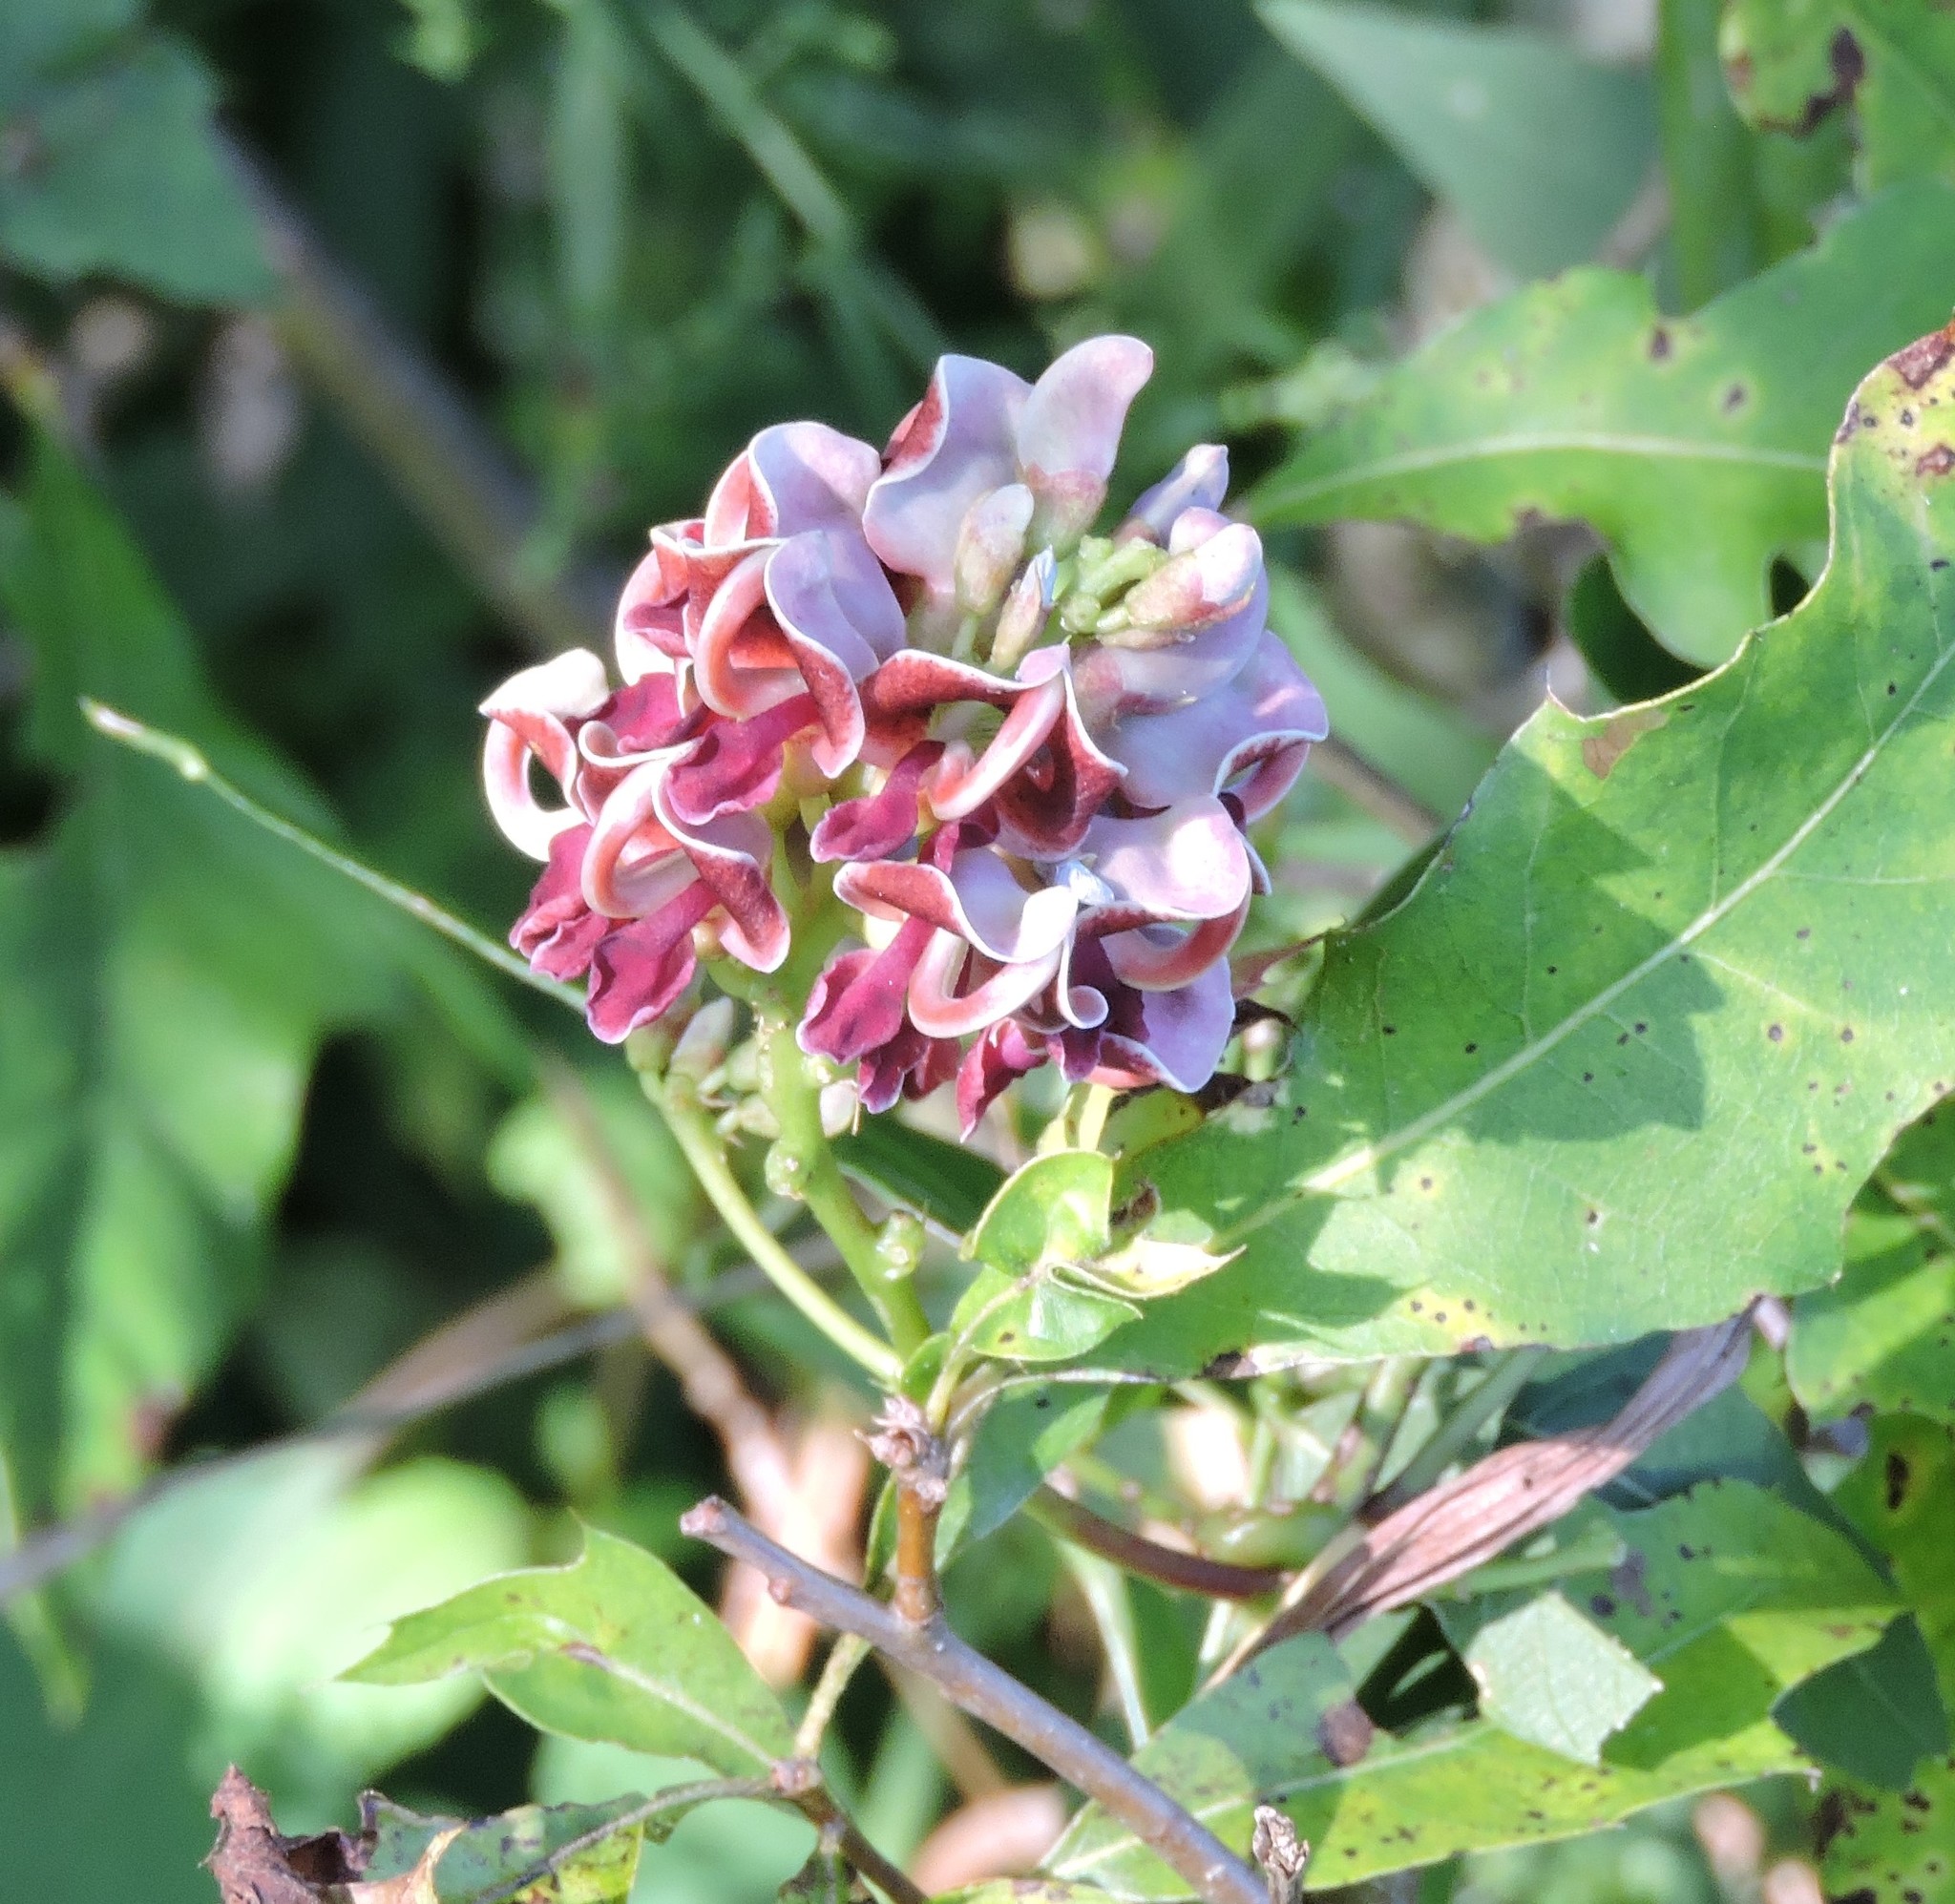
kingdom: Plantae
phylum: Tracheophyta
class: Magnoliopsida
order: Fabales
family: Fabaceae
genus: Apios
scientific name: Apios americana
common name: American potato-bean
